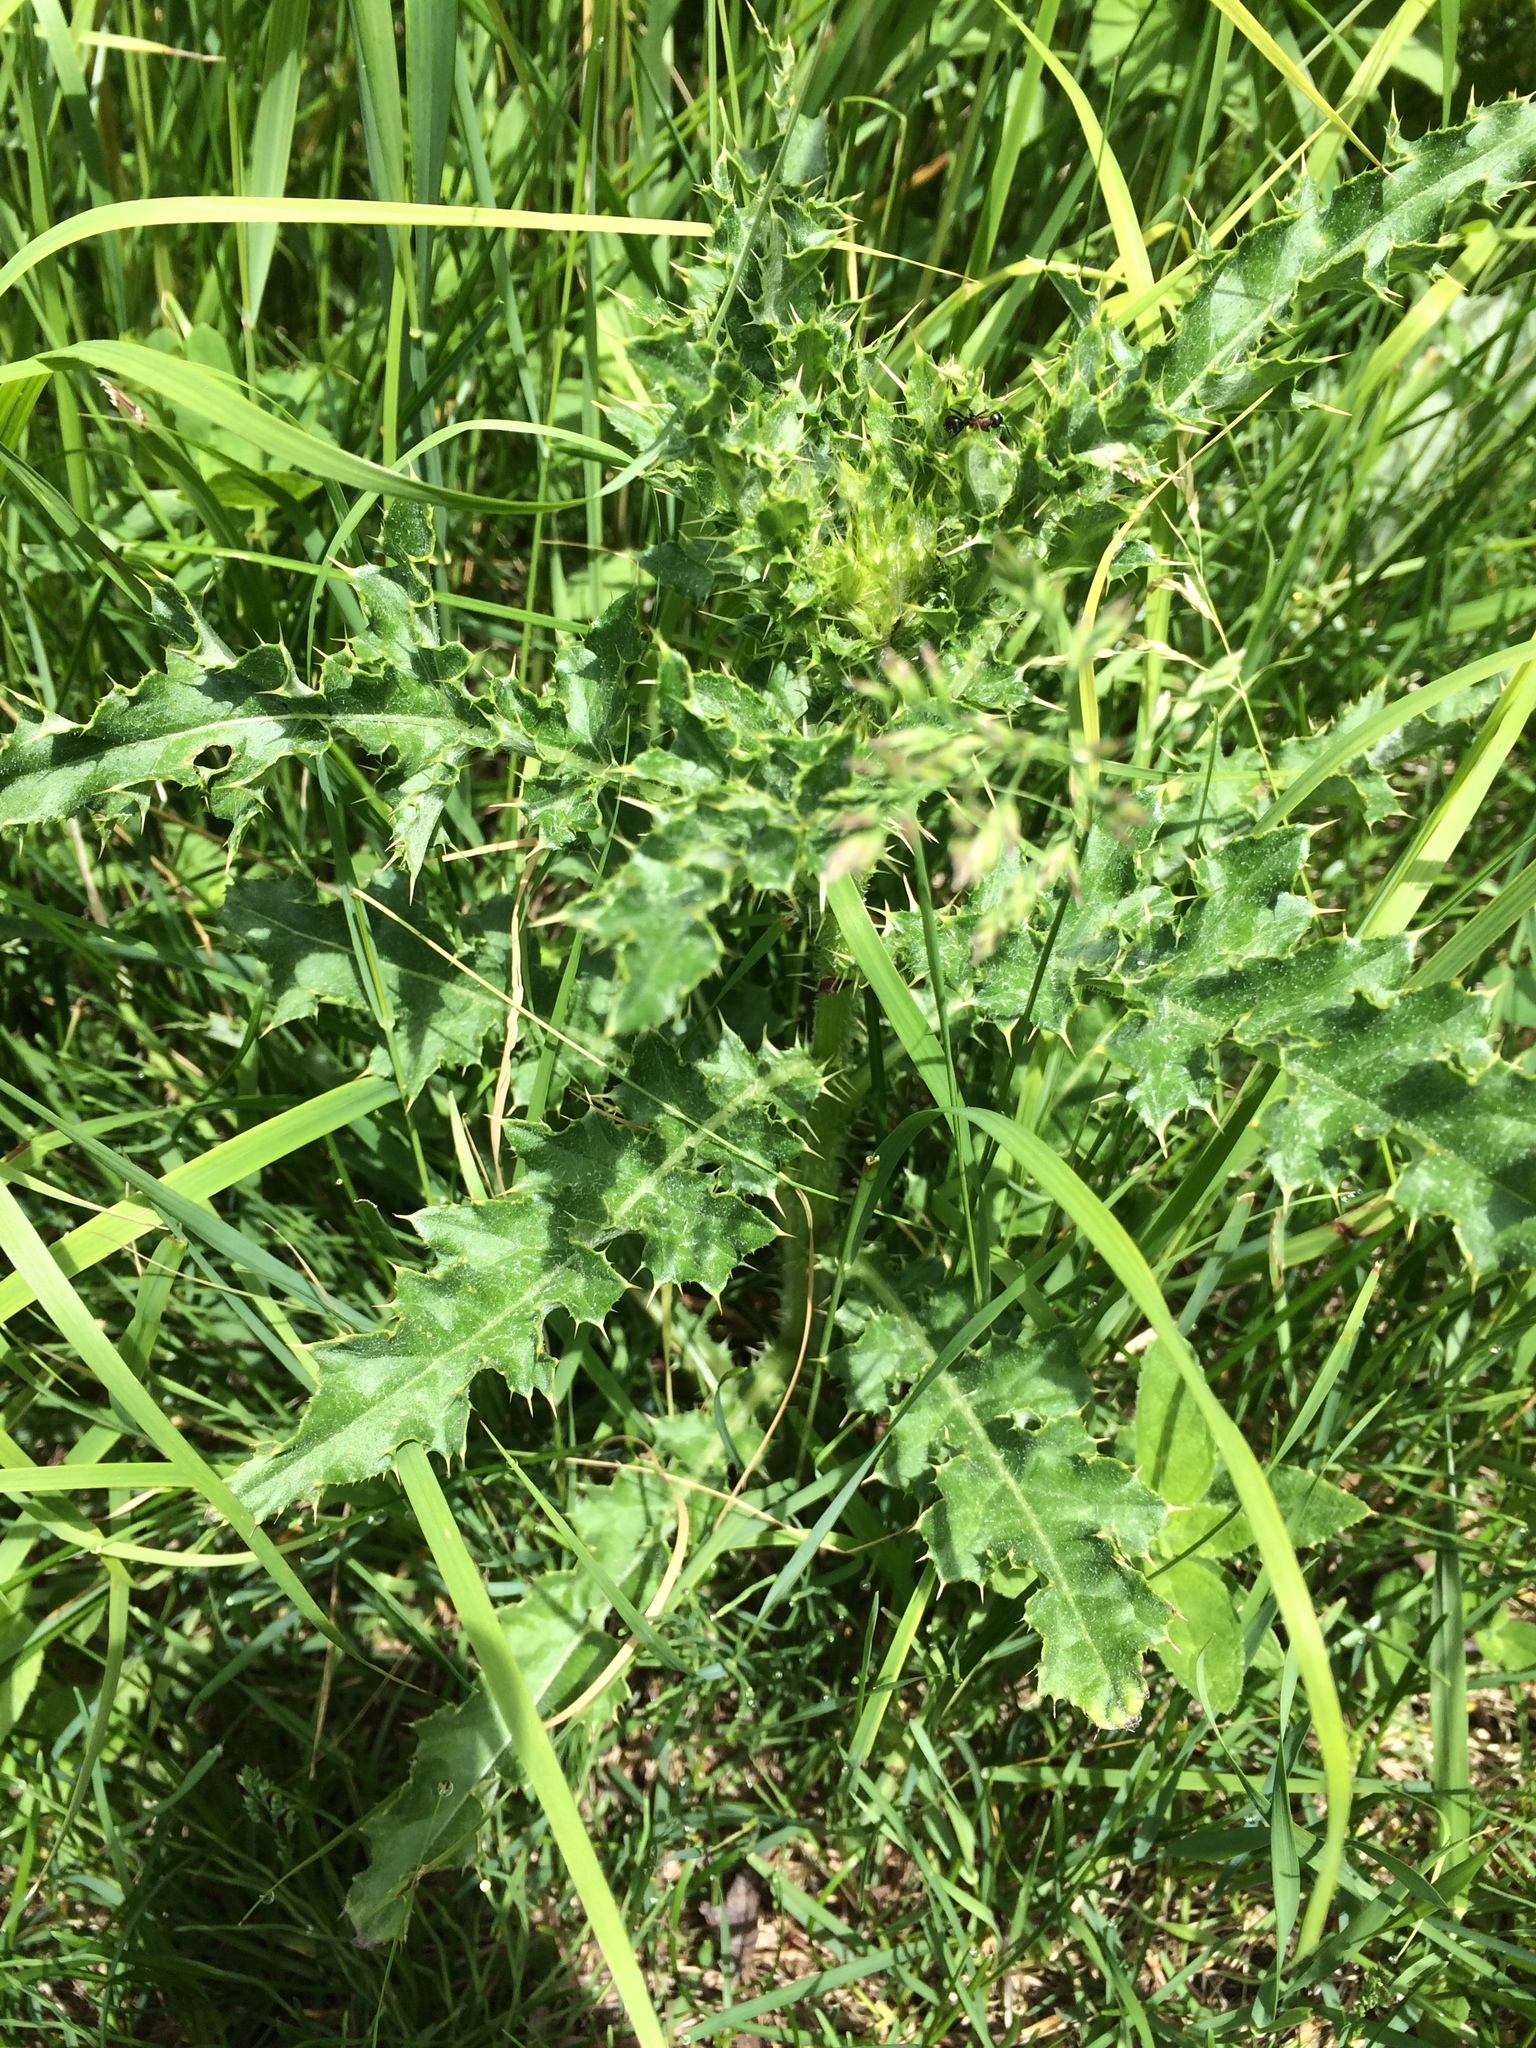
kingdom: Plantae
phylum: Tracheophyta
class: Magnoliopsida
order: Asterales
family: Asteraceae
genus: Cirsium
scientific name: Cirsium arvense
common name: Creeping thistle
